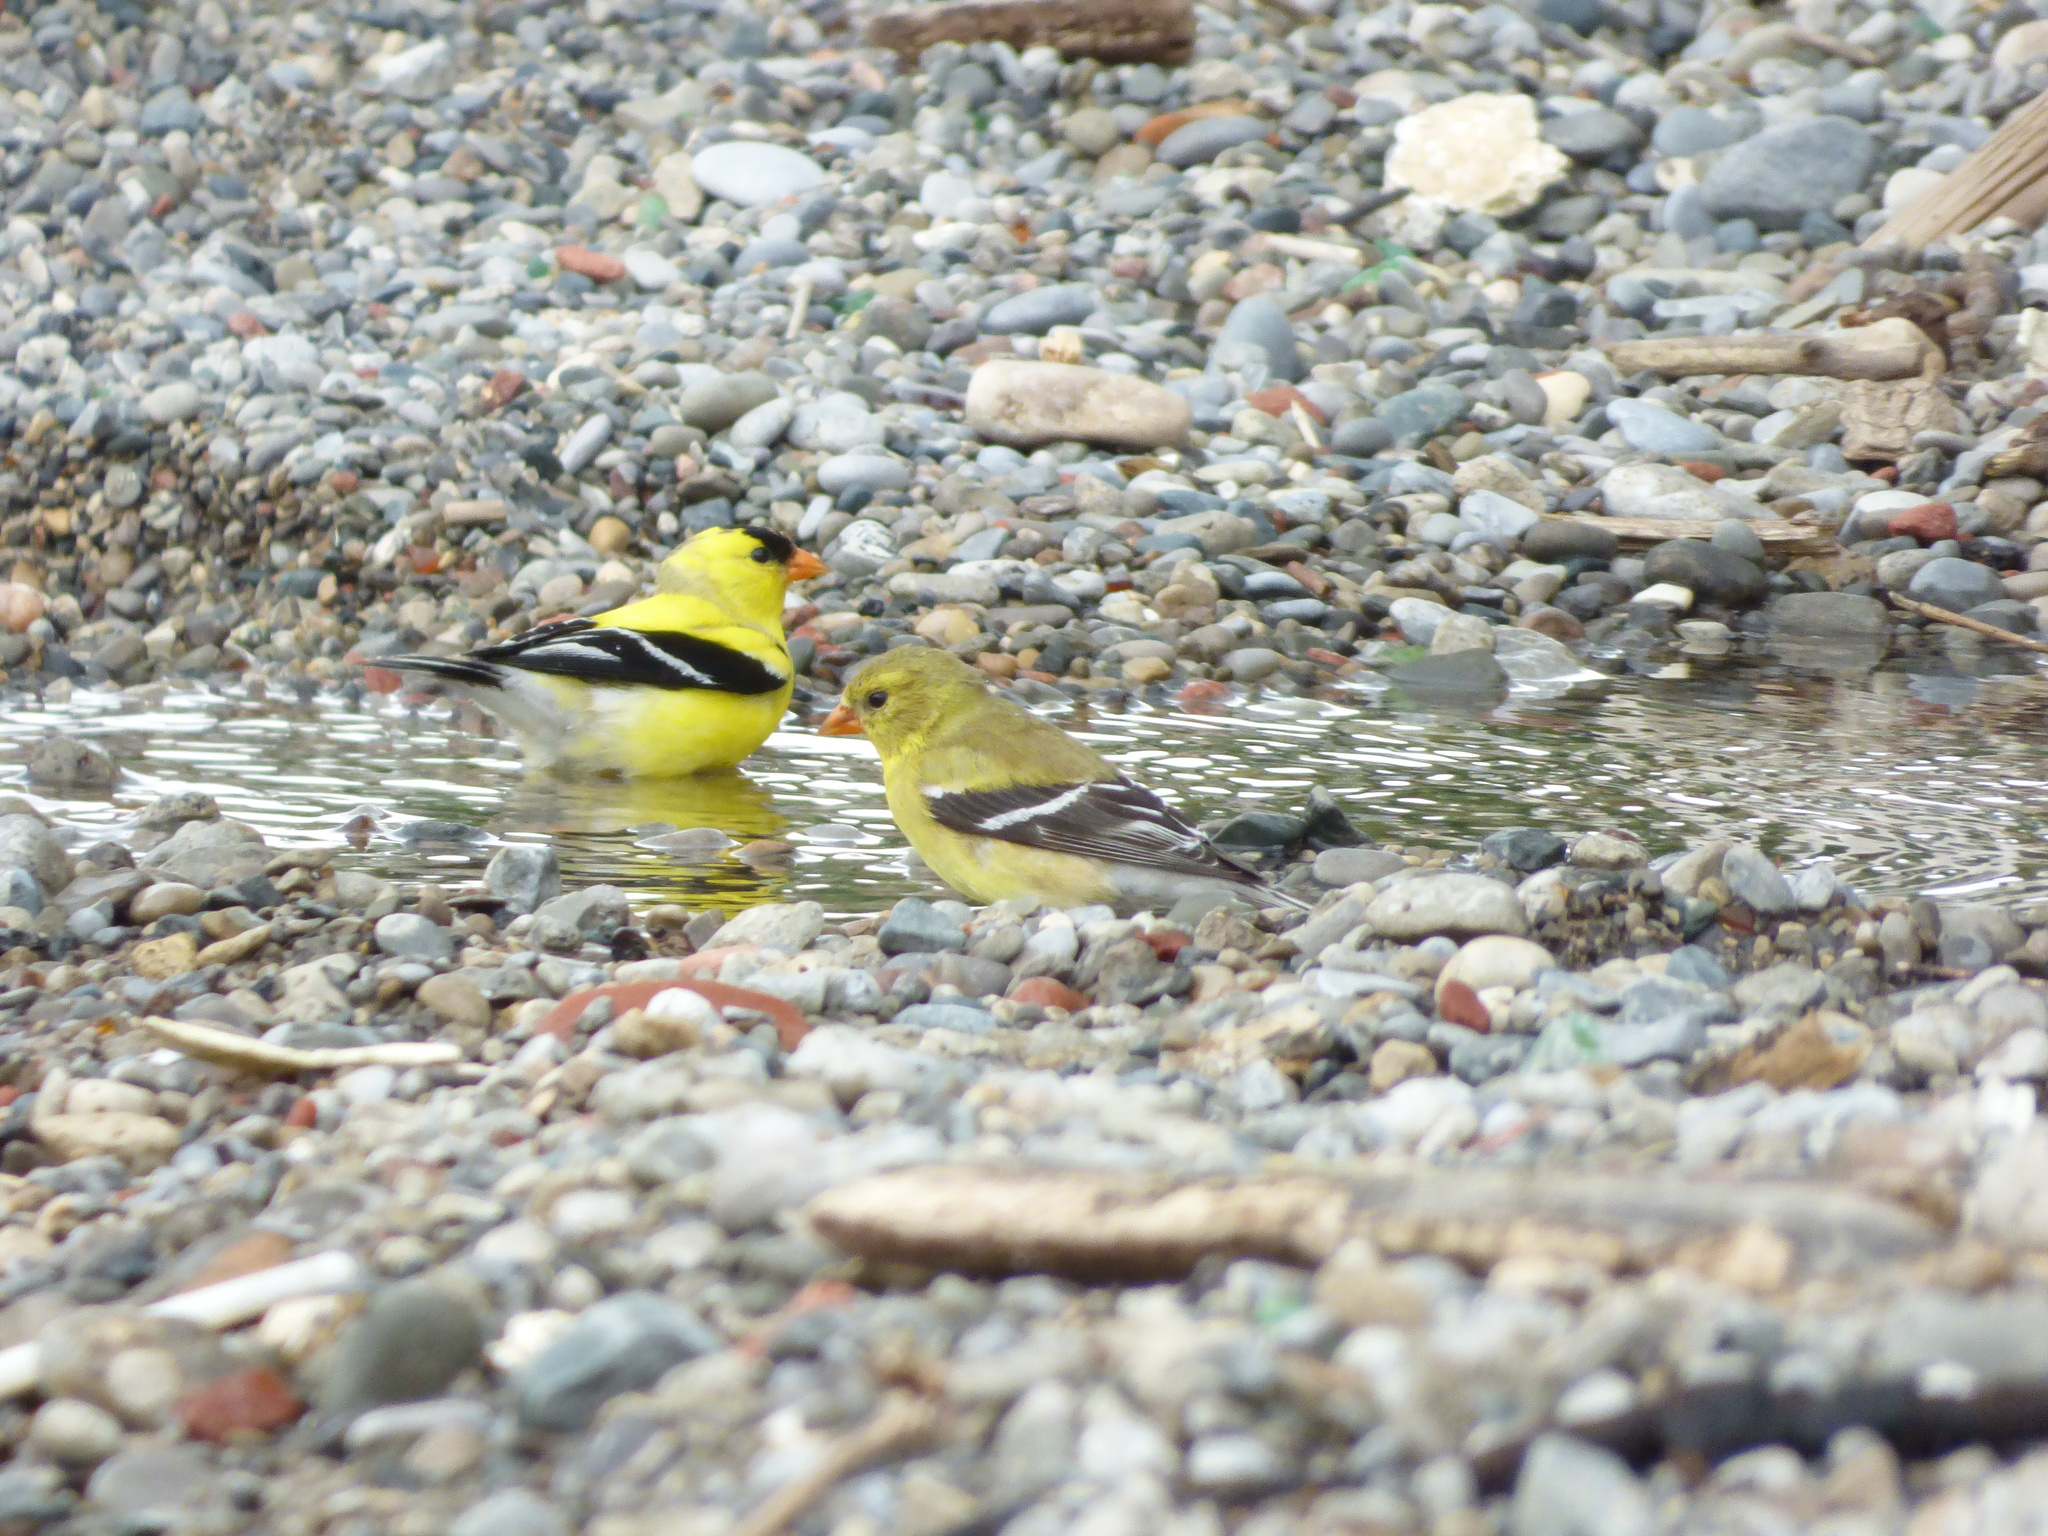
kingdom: Animalia
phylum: Chordata
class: Aves
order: Passeriformes
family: Fringillidae
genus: Spinus
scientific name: Spinus tristis
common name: American goldfinch
